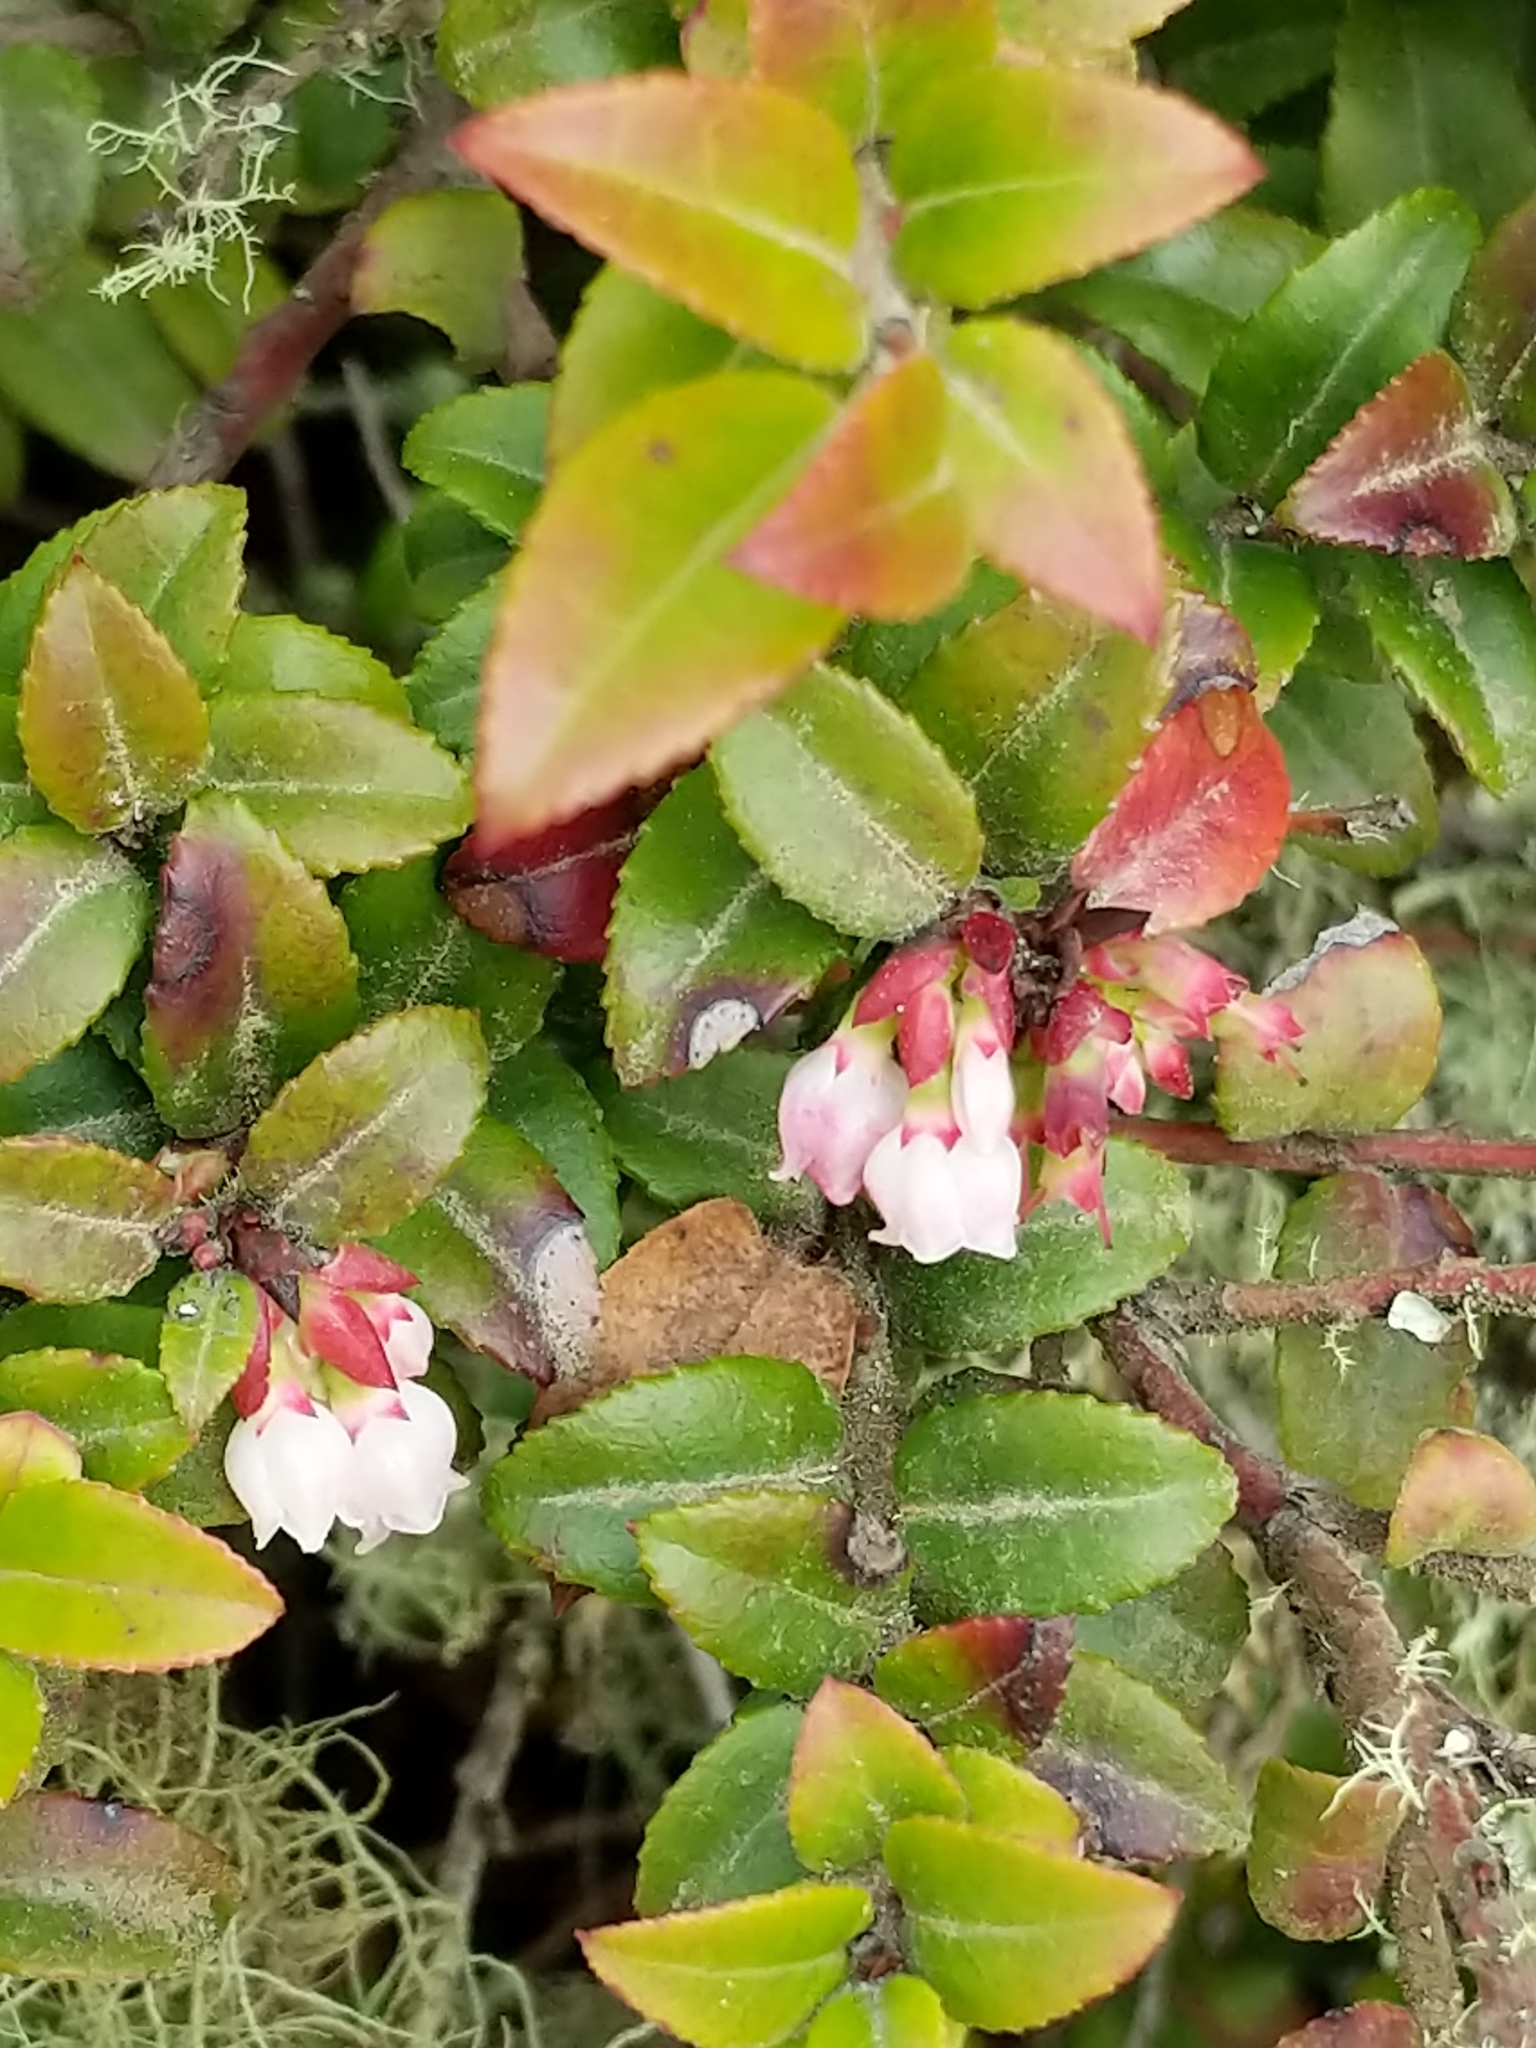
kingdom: Plantae
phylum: Tracheophyta
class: Magnoliopsida
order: Ericales
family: Ericaceae
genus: Vaccinium
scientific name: Vaccinium ovatum
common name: California-huckleberry
